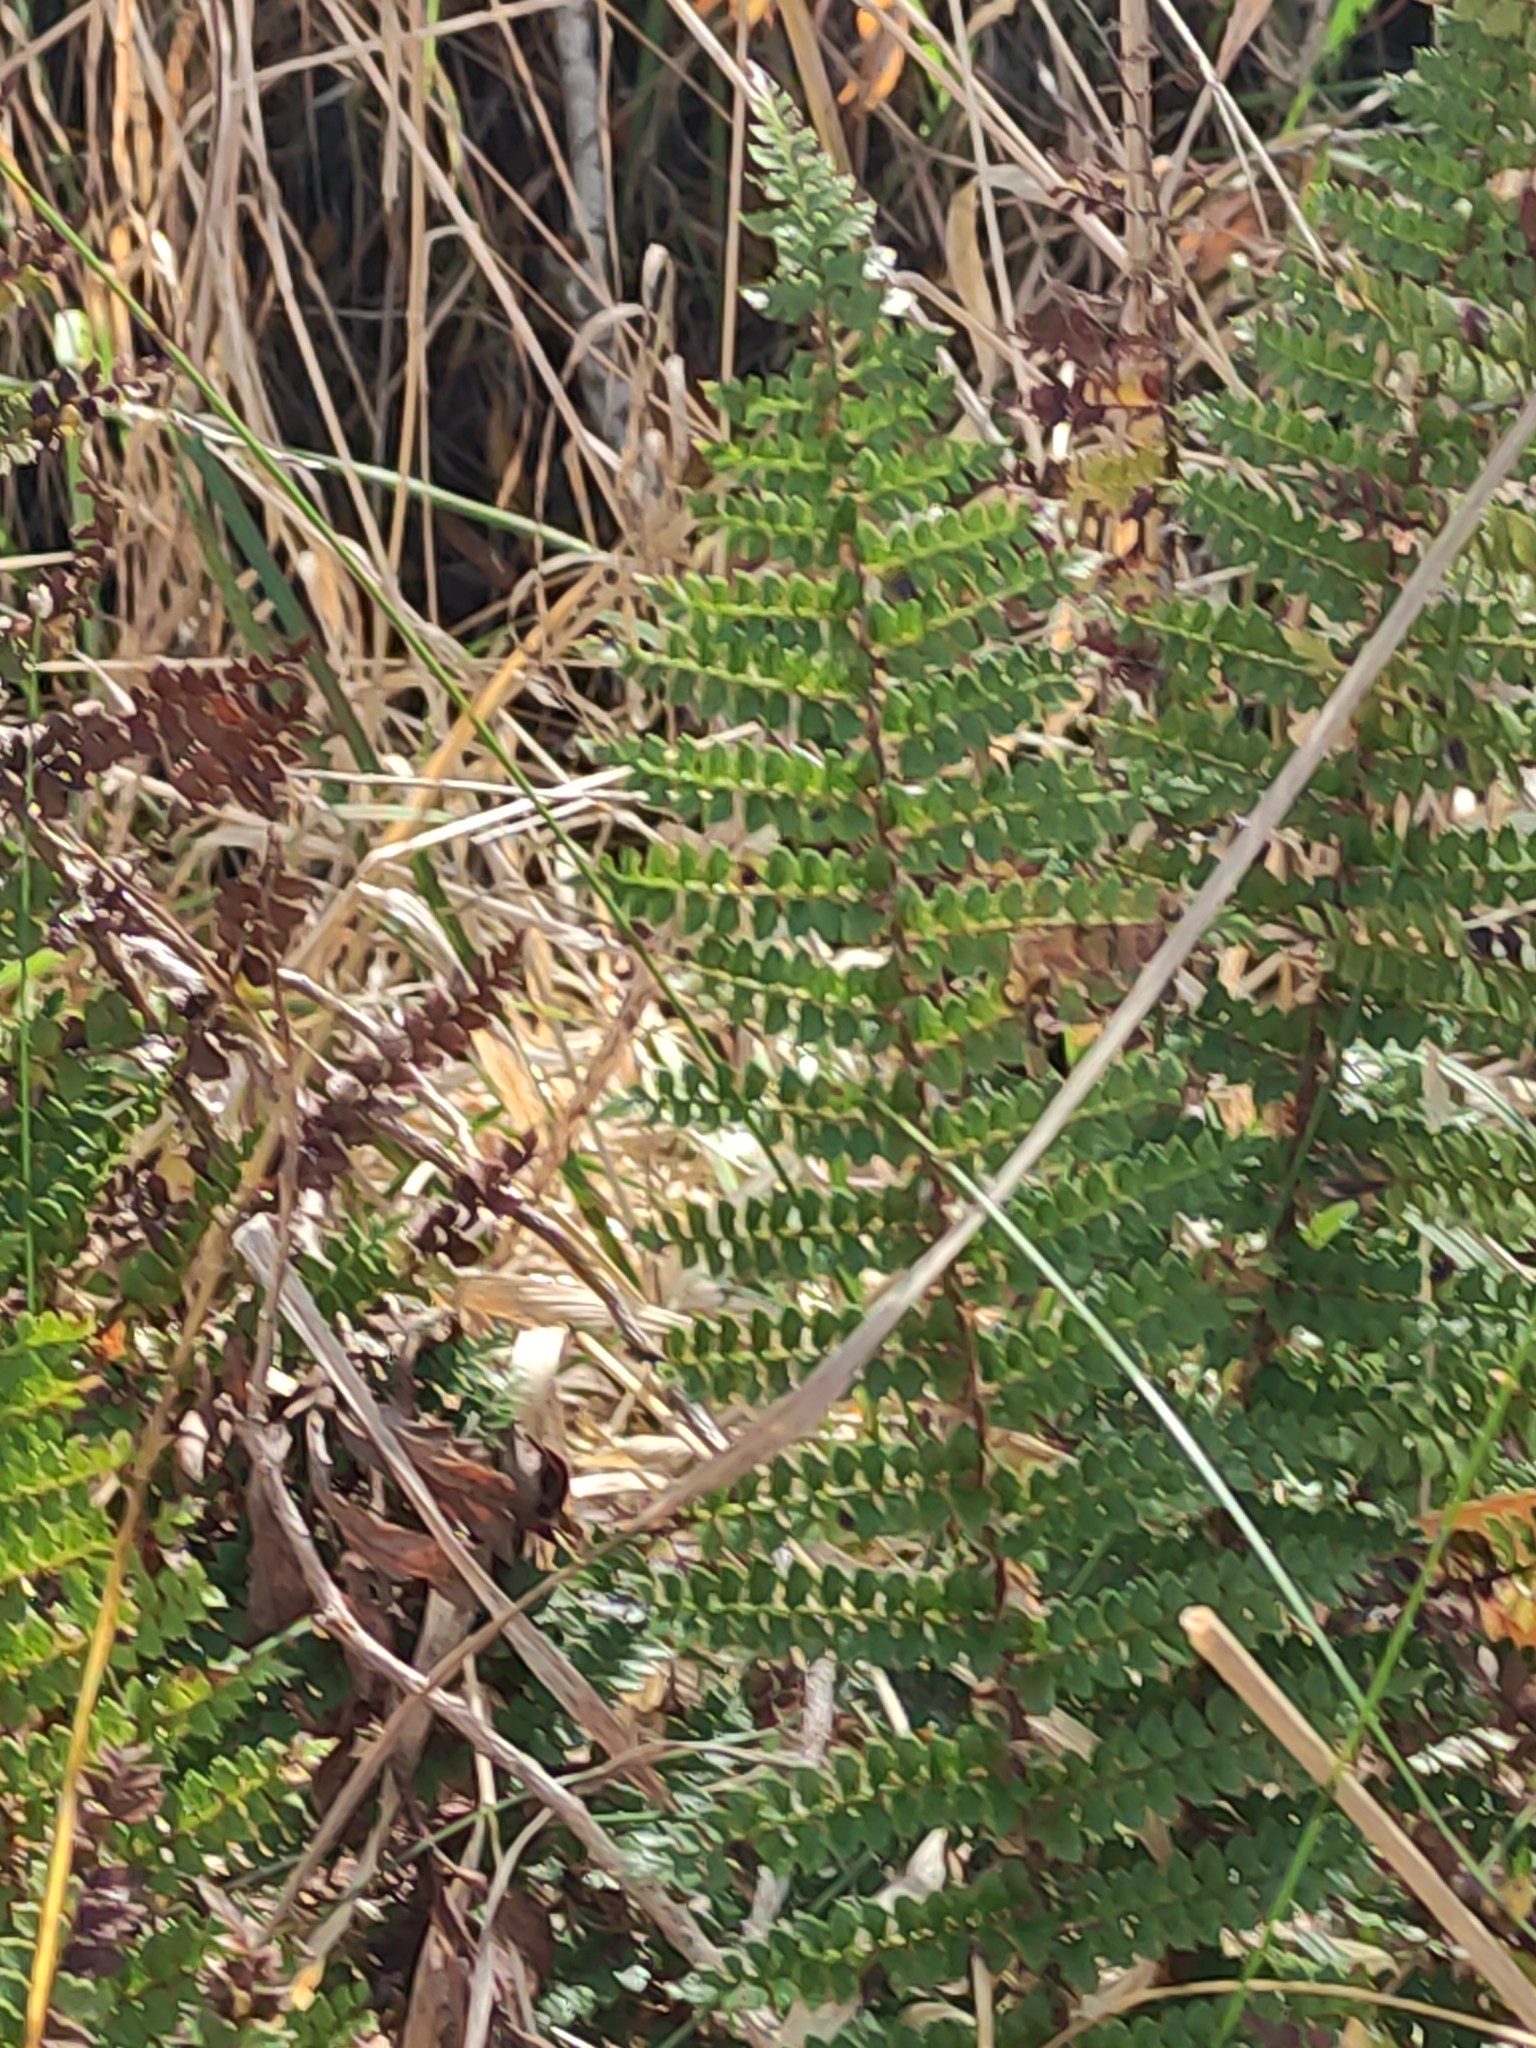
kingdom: Plantae
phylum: Tracheophyta
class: Polypodiopsida
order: Polypodiales
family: Dryopteridaceae
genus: Polystichum
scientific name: Polystichum vestitum
